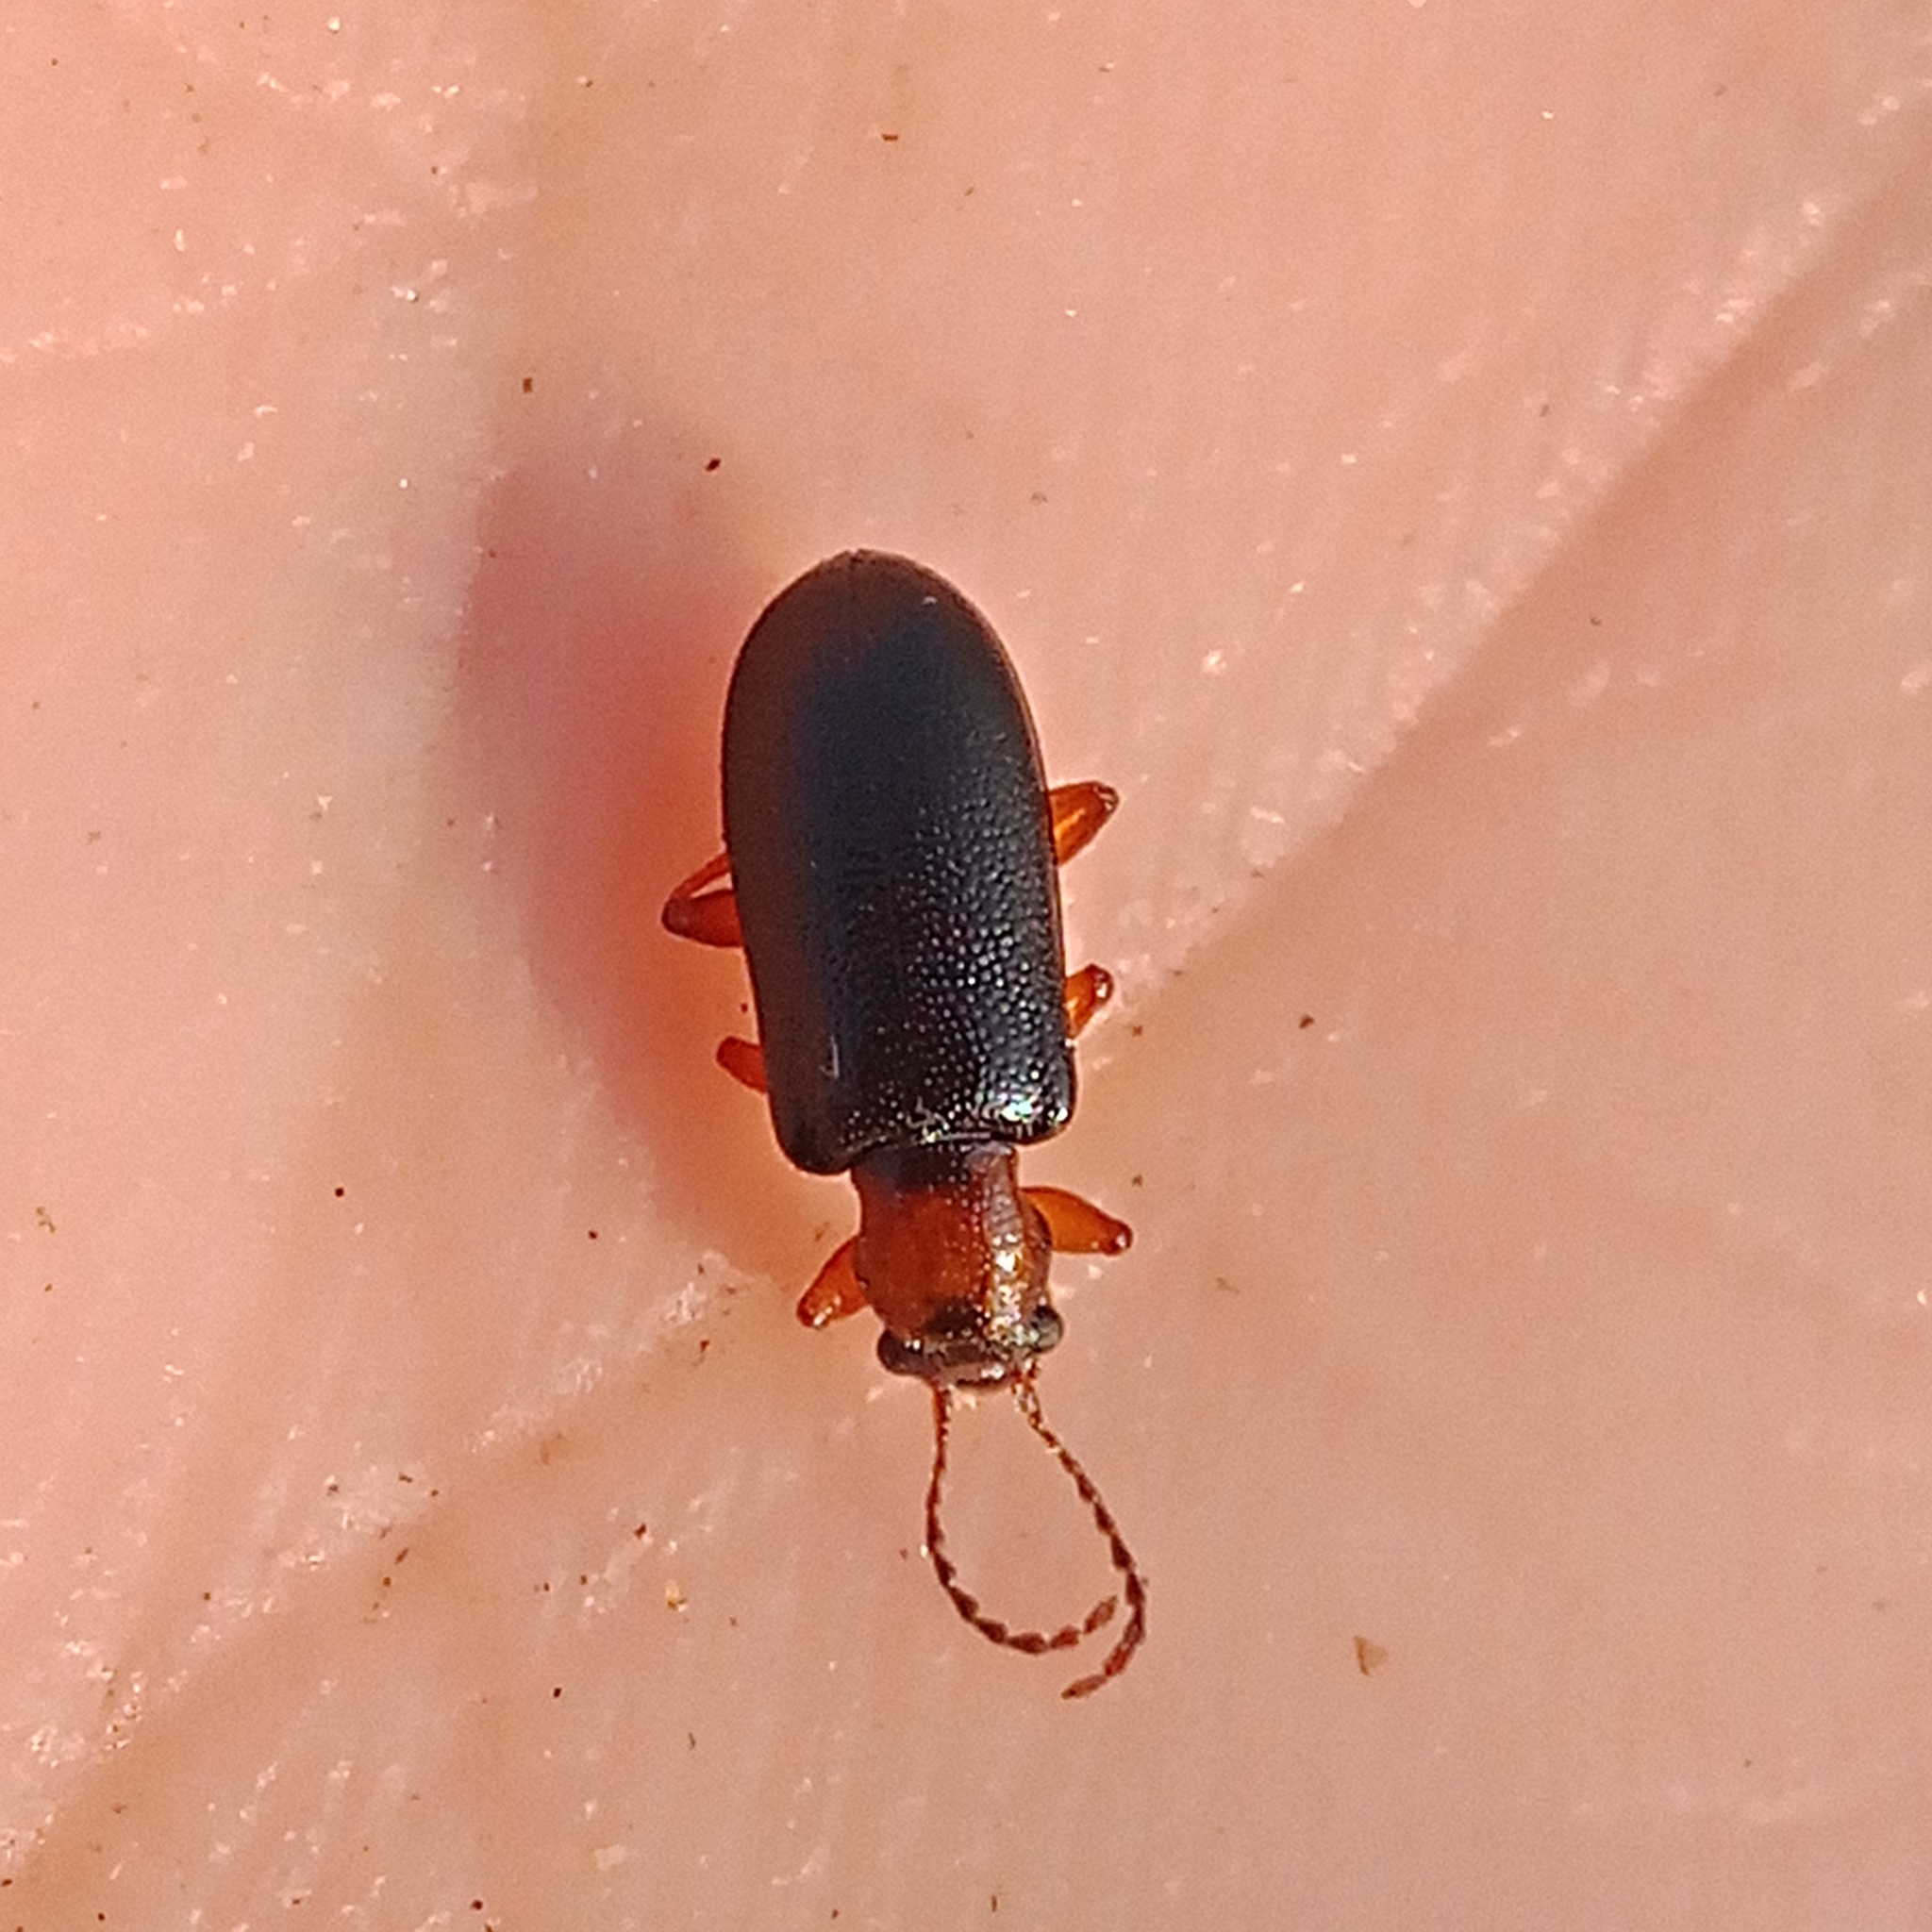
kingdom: Animalia
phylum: Arthropoda
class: Insecta
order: Coleoptera
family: Orsodacnidae
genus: Orsodacne
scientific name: Orsodacne cerasi
